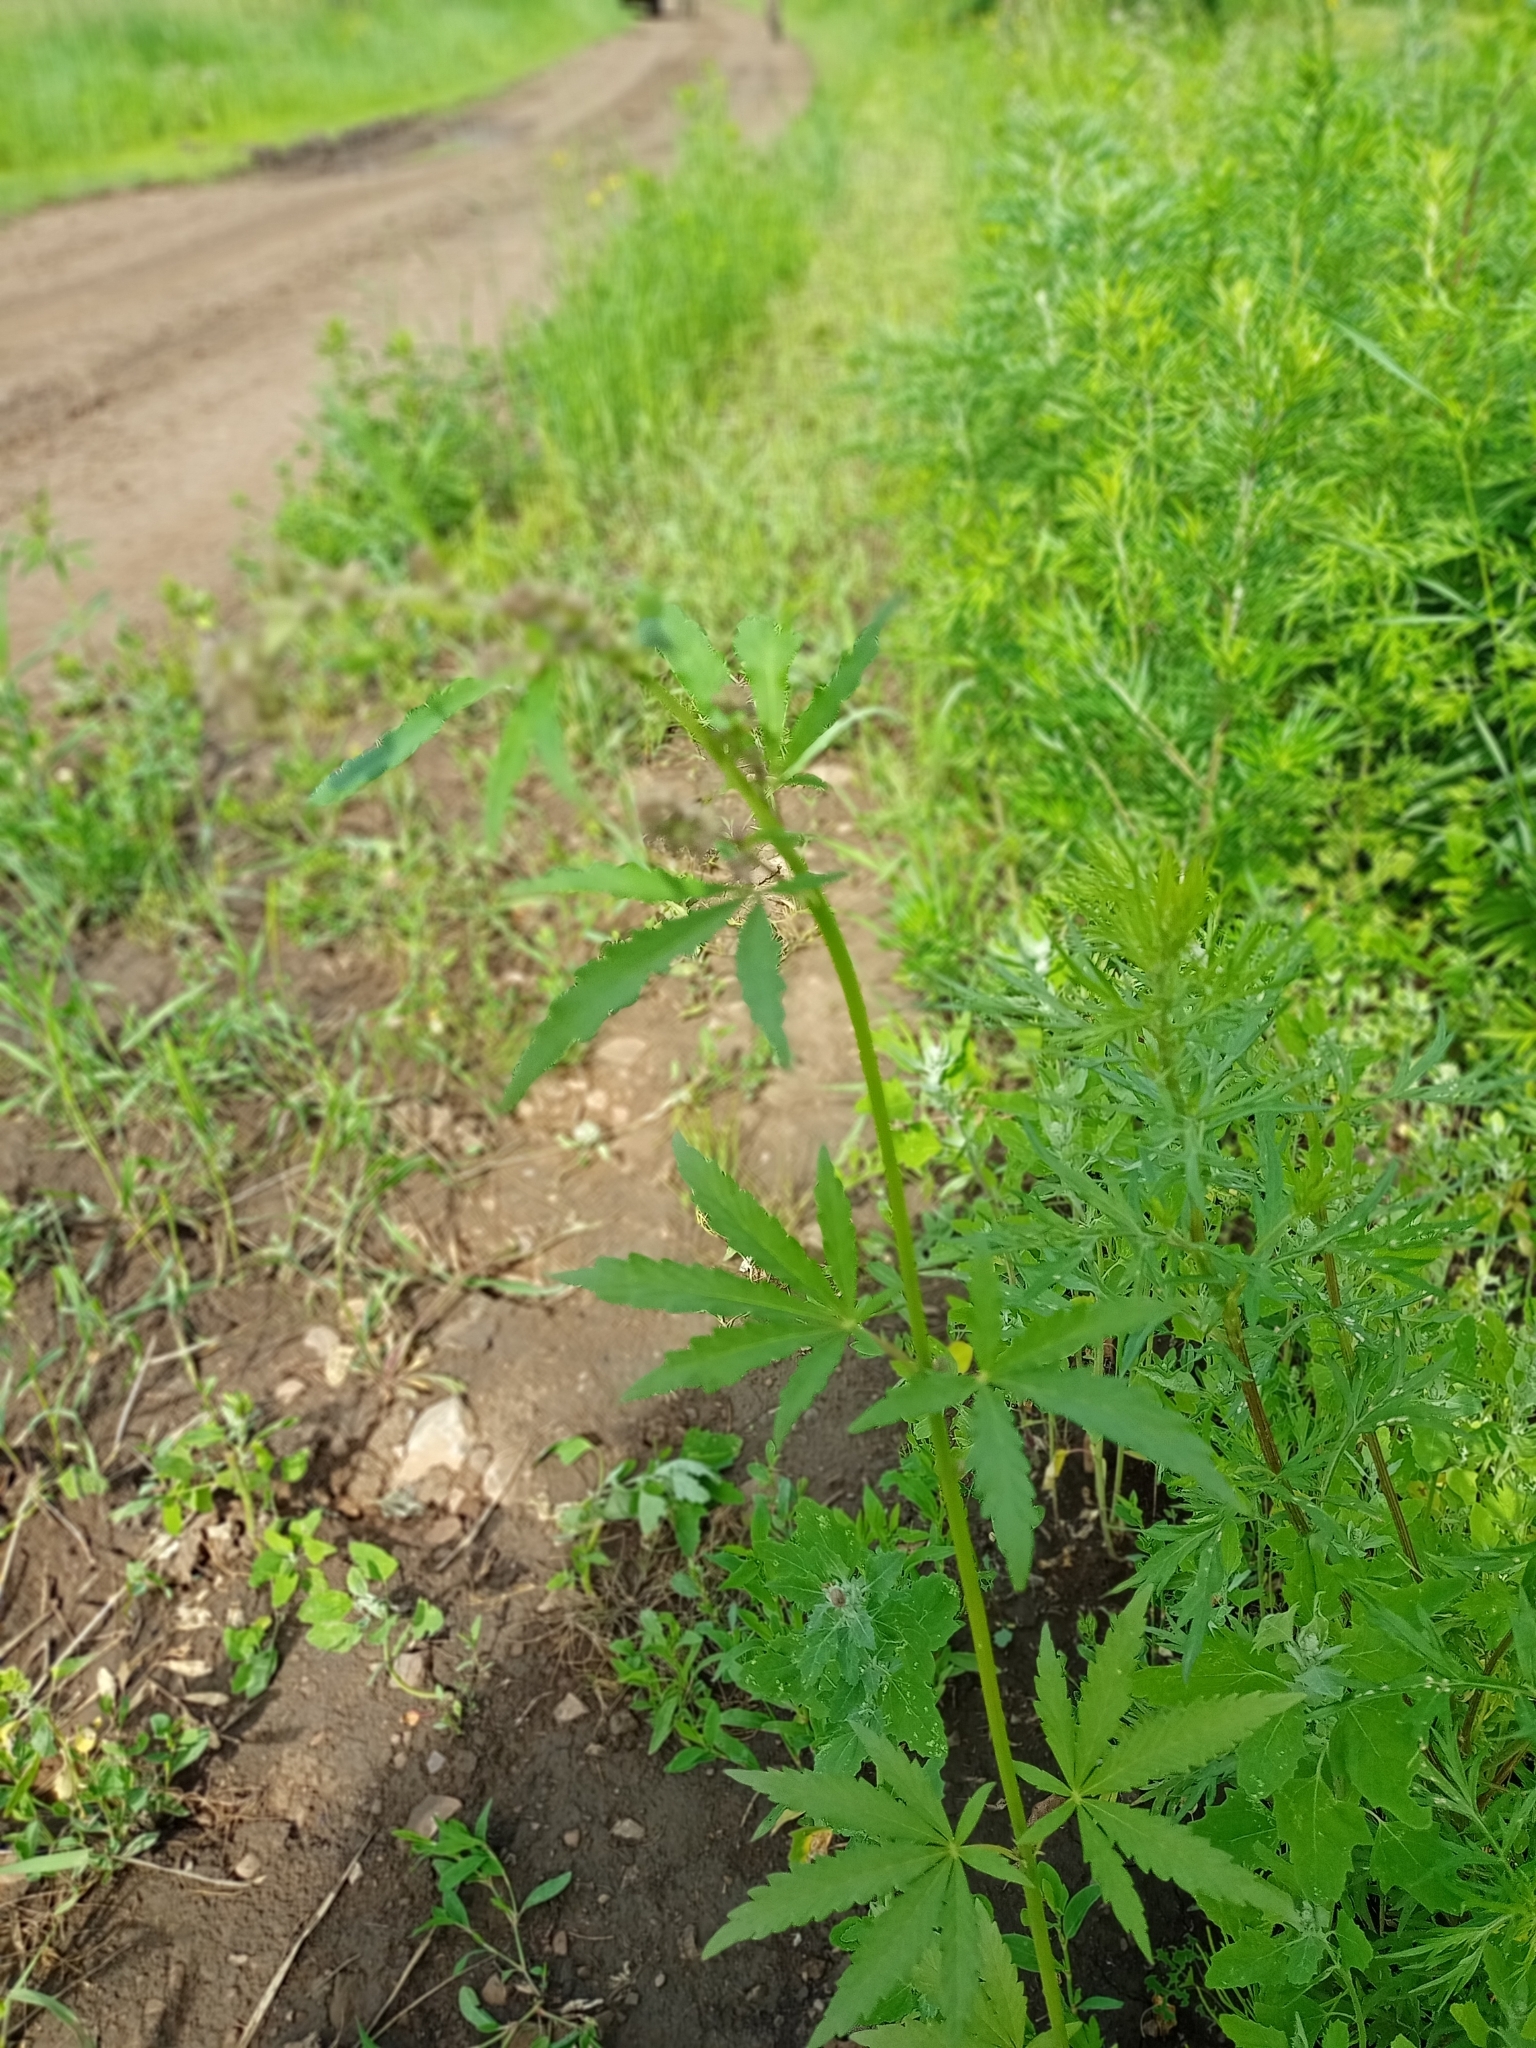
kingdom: Plantae
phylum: Tracheophyta
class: Magnoliopsida
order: Rosales
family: Cannabaceae
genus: Cannabis
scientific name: Cannabis sativa
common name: Hemp
